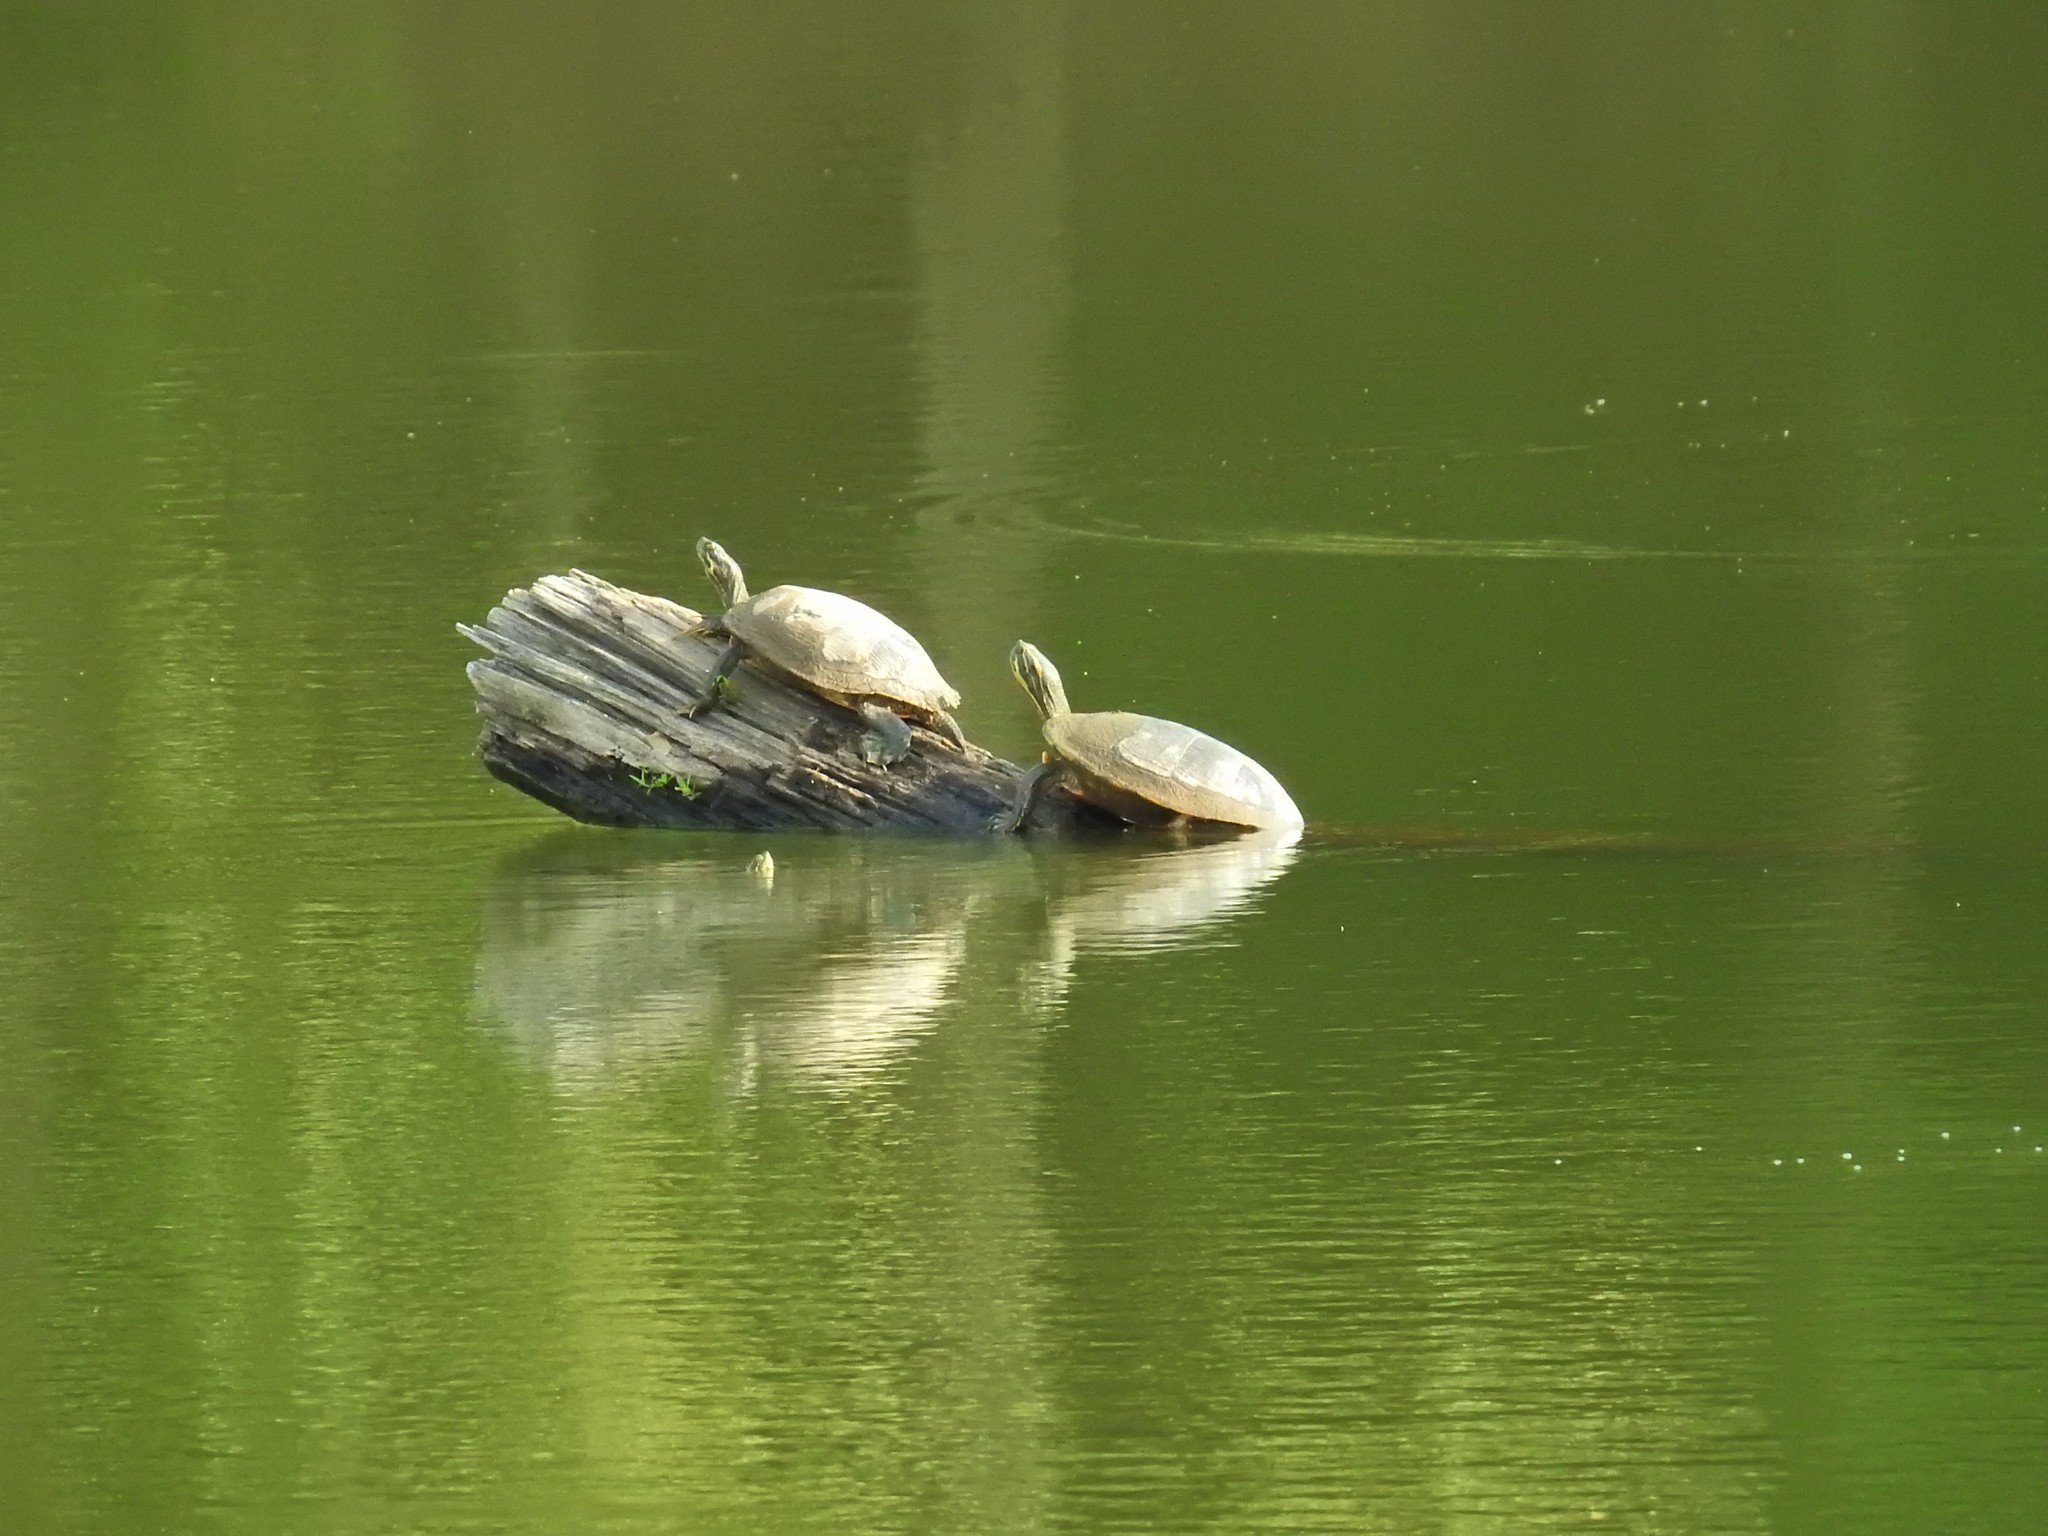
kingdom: Animalia
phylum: Chordata
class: Testudines
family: Emydidae
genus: Pseudemys
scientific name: Pseudemys concinna
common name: Eastern river cooter
